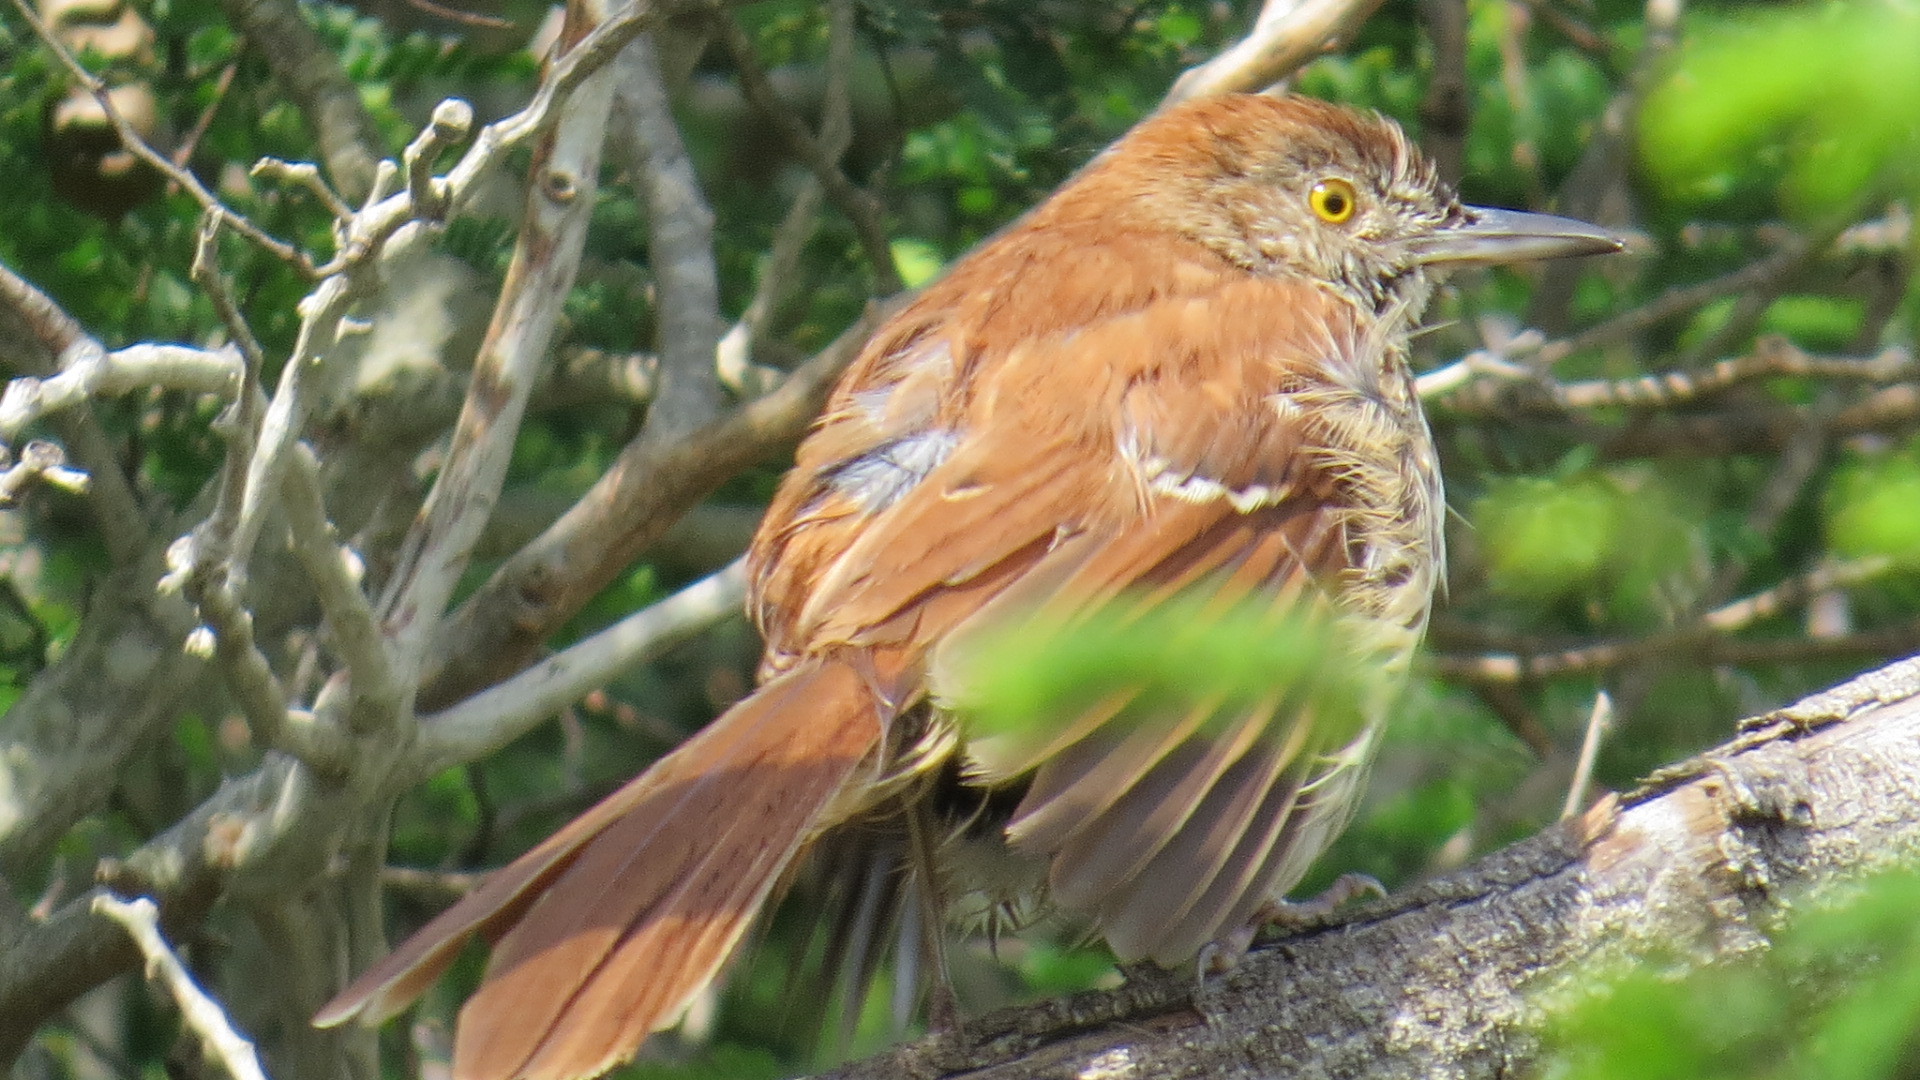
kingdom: Animalia
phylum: Chordata
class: Aves
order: Passeriformes
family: Mimidae
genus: Toxostoma
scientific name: Toxostoma rufum
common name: Brown thrasher
